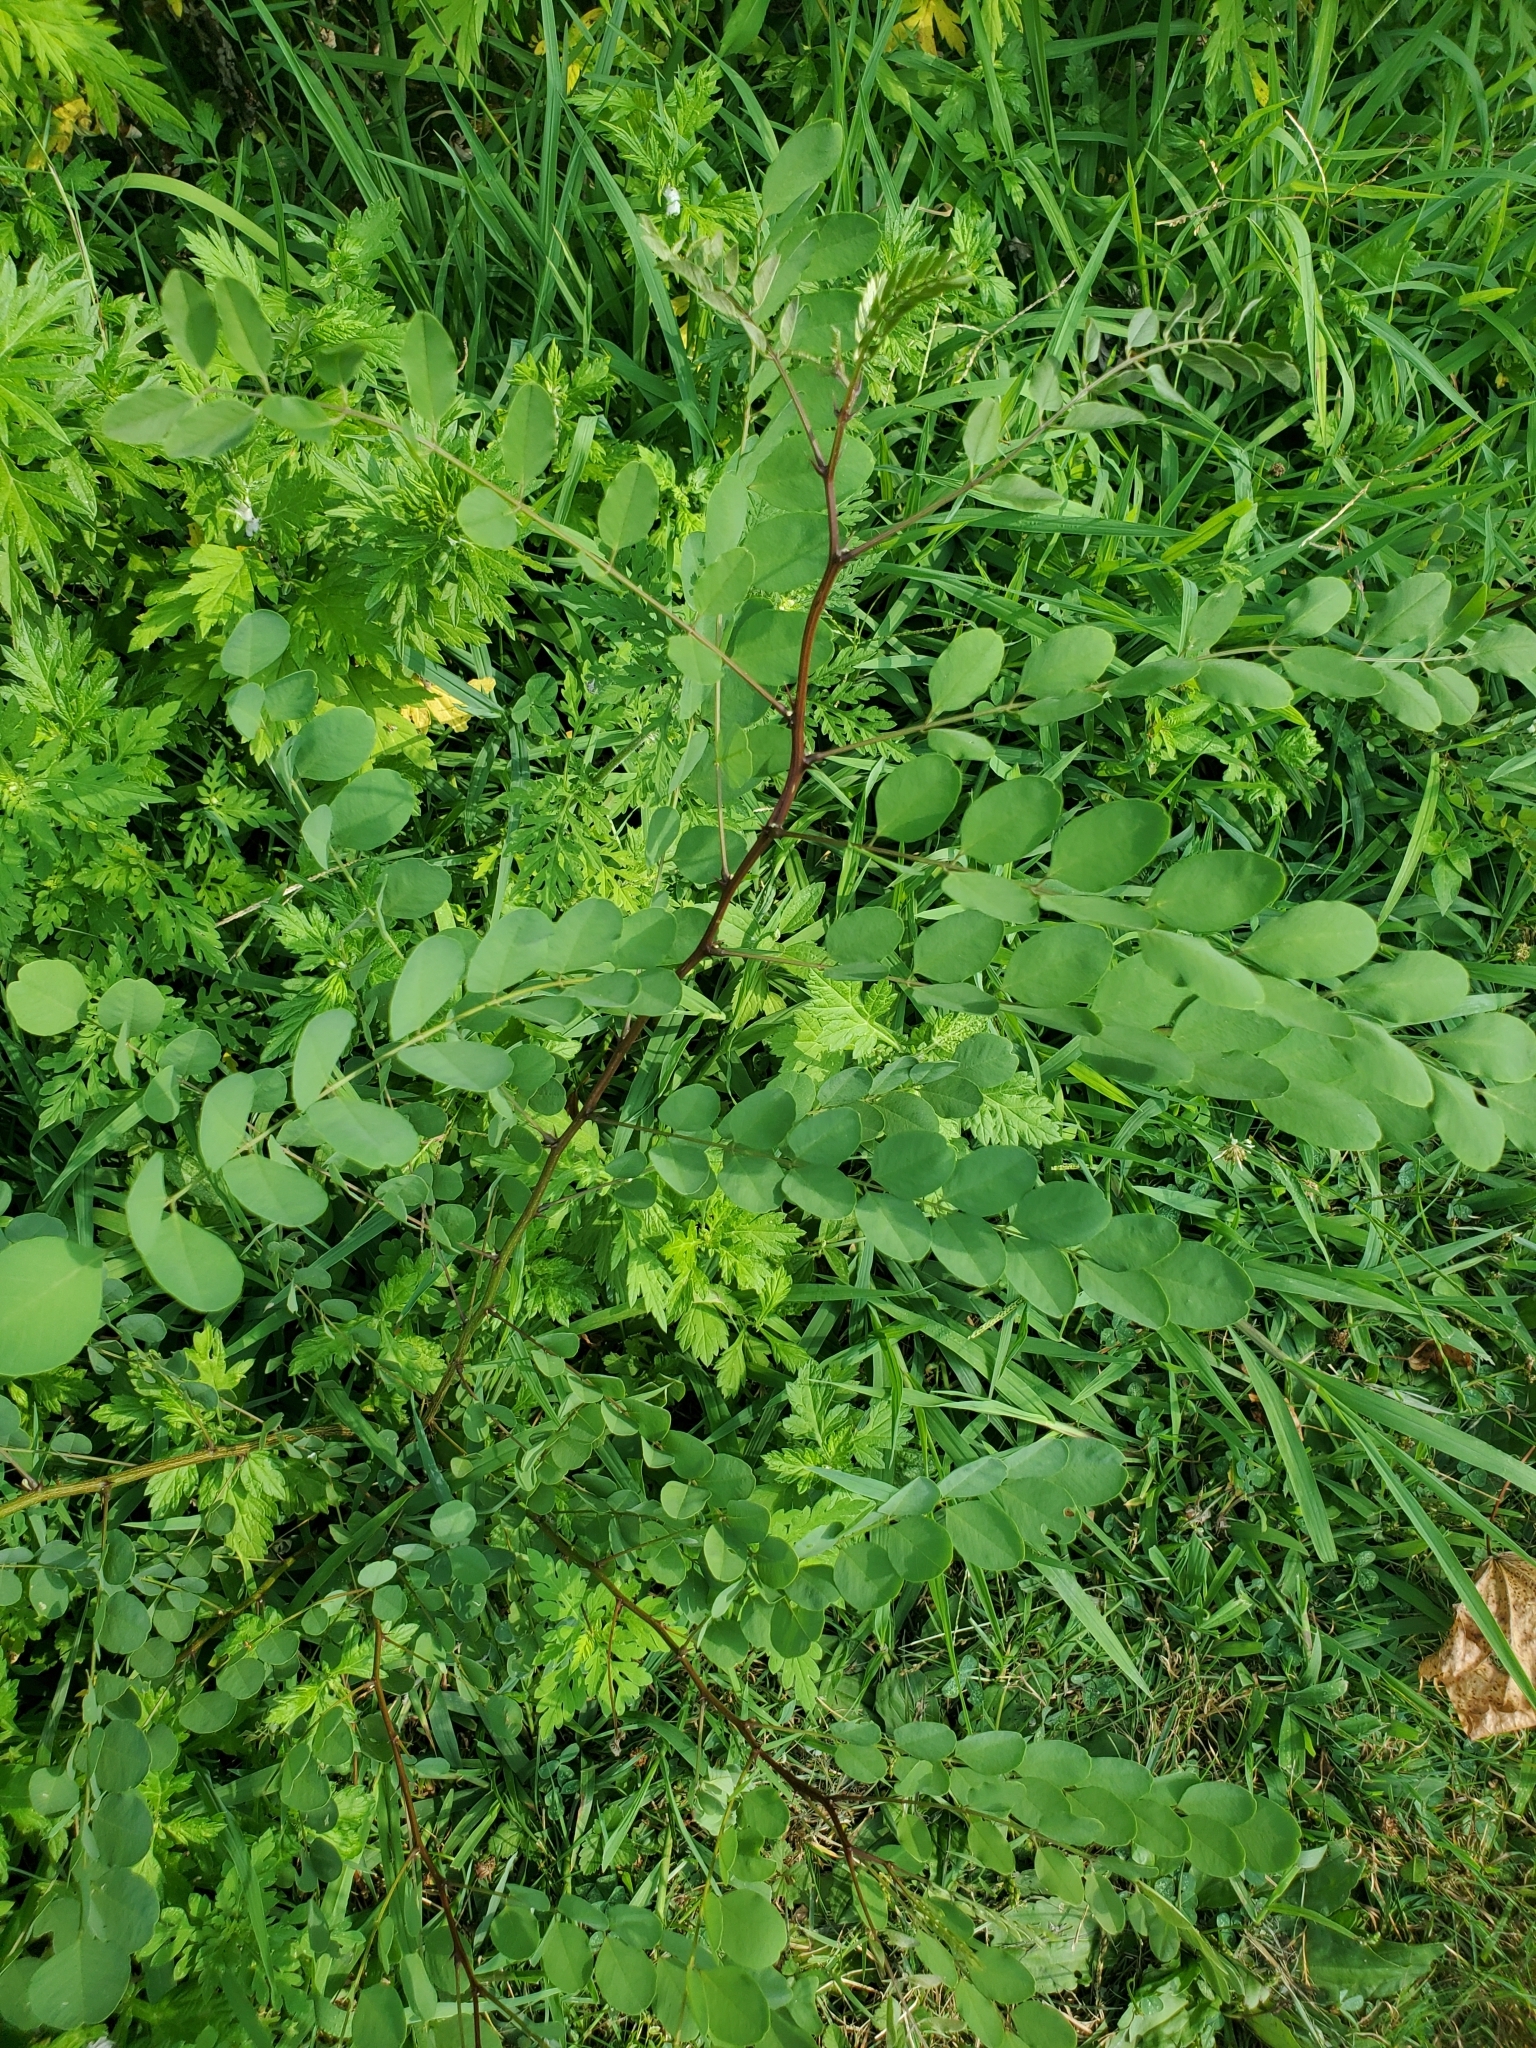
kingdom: Plantae
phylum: Tracheophyta
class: Magnoliopsida
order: Fabales
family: Fabaceae
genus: Robinia
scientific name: Robinia pseudoacacia
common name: Black locust
